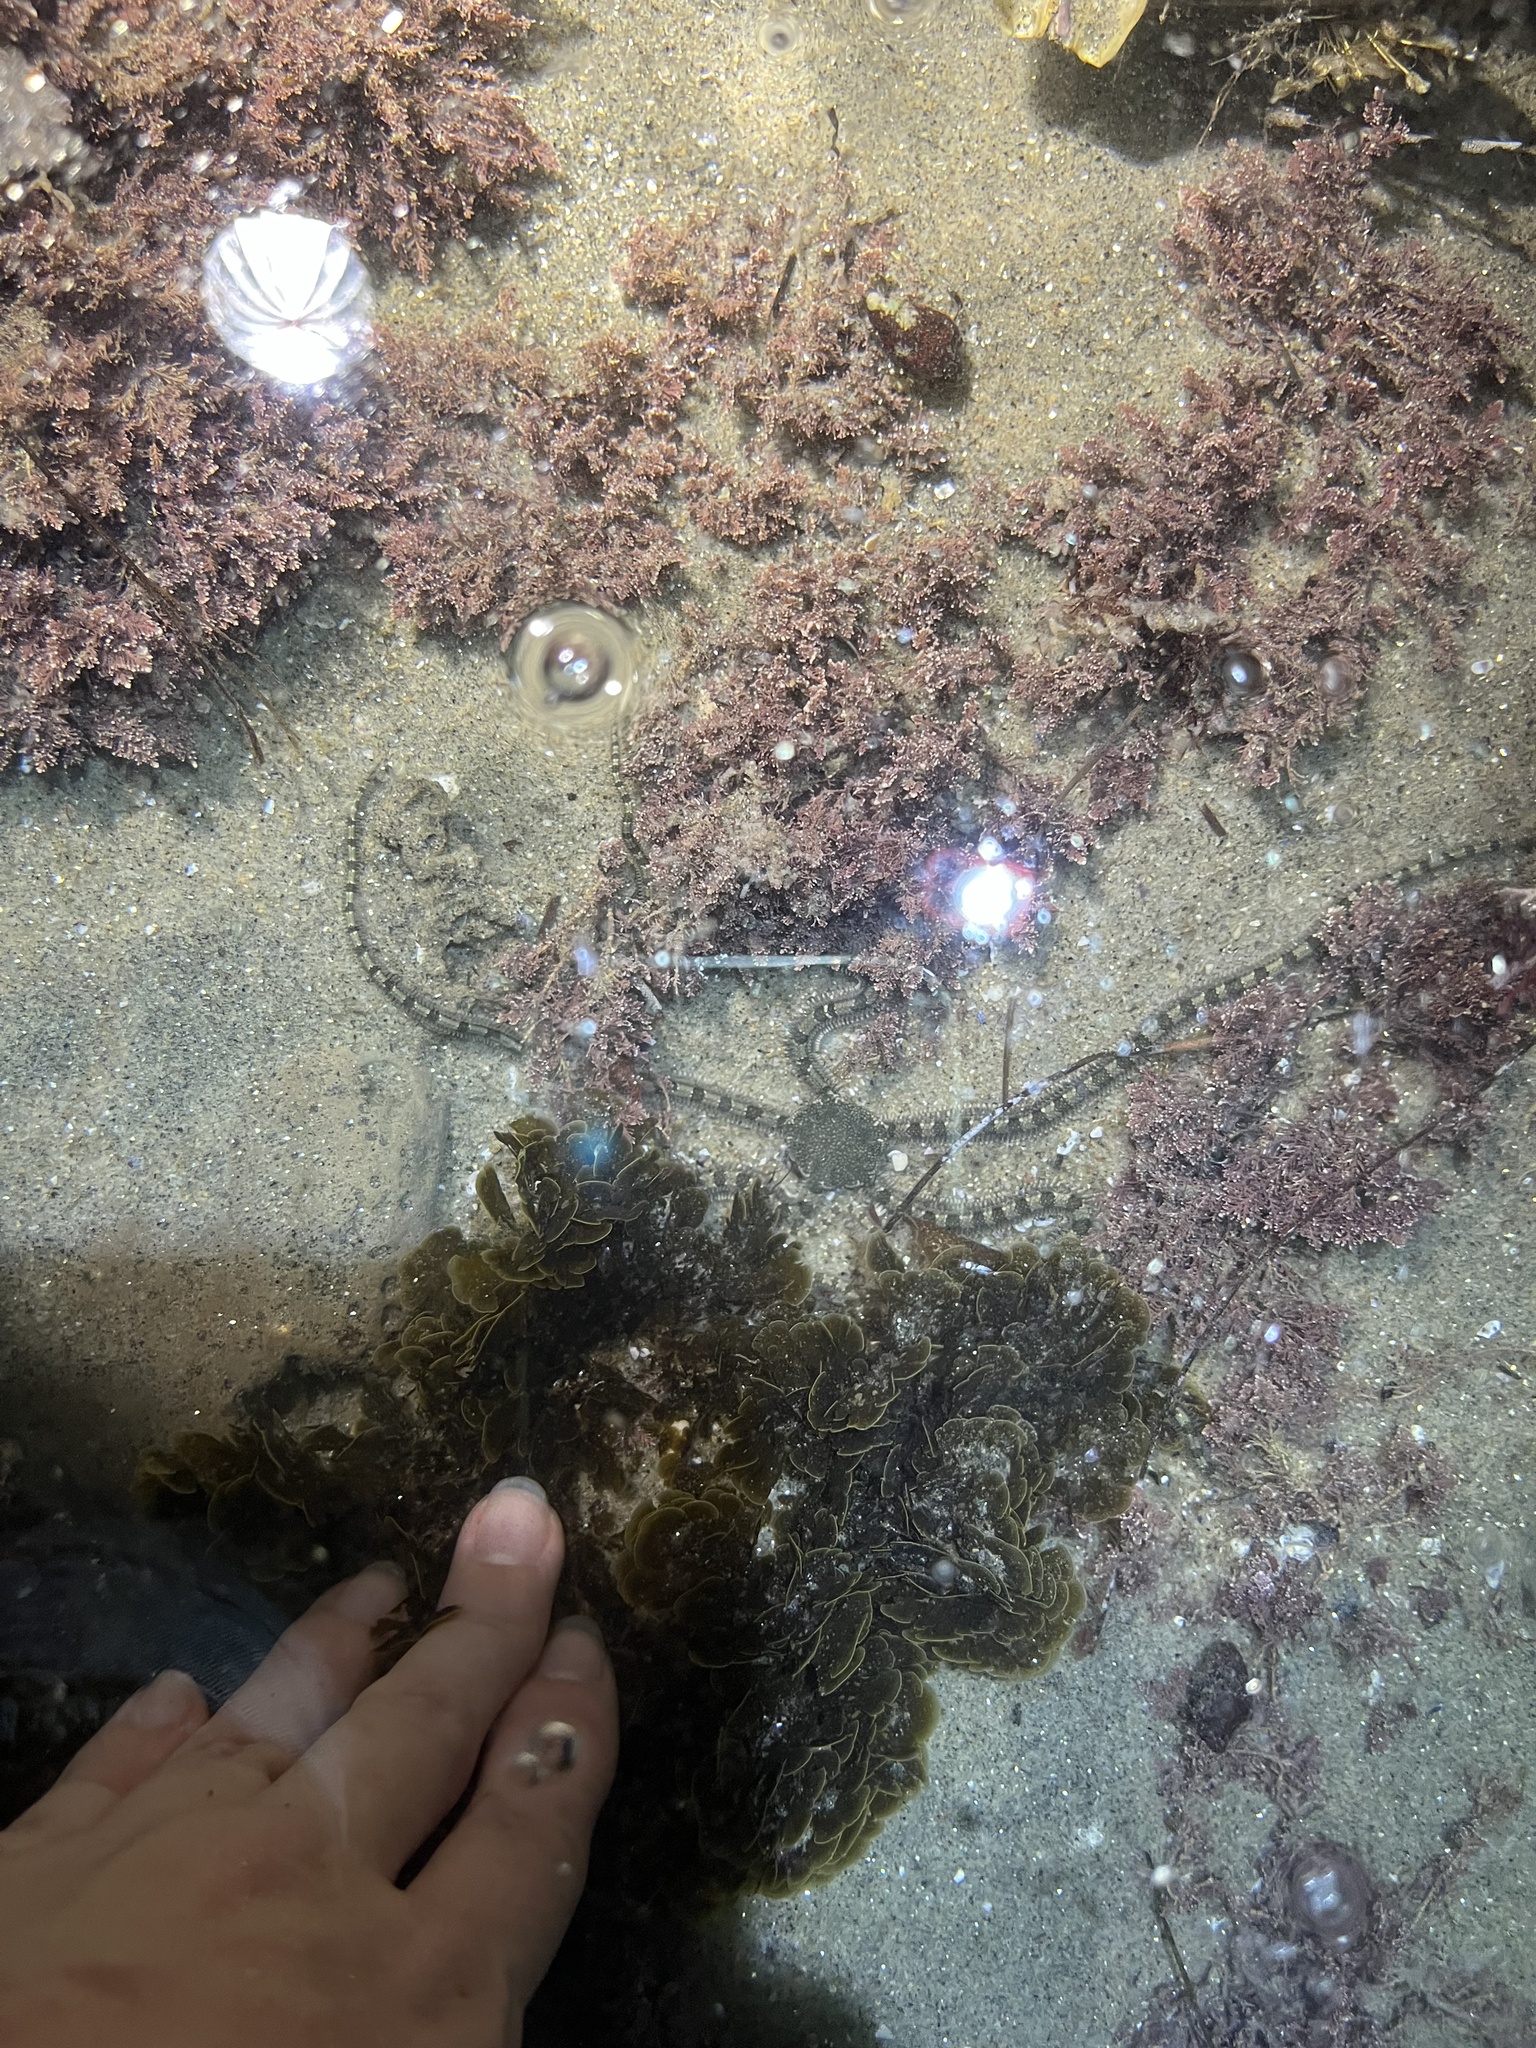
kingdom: Animalia
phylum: Echinodermata
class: Ophiuroidea
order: Amphilepidida
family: Ophionereididae
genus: Ophionereis
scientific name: Ophionereis annulata
